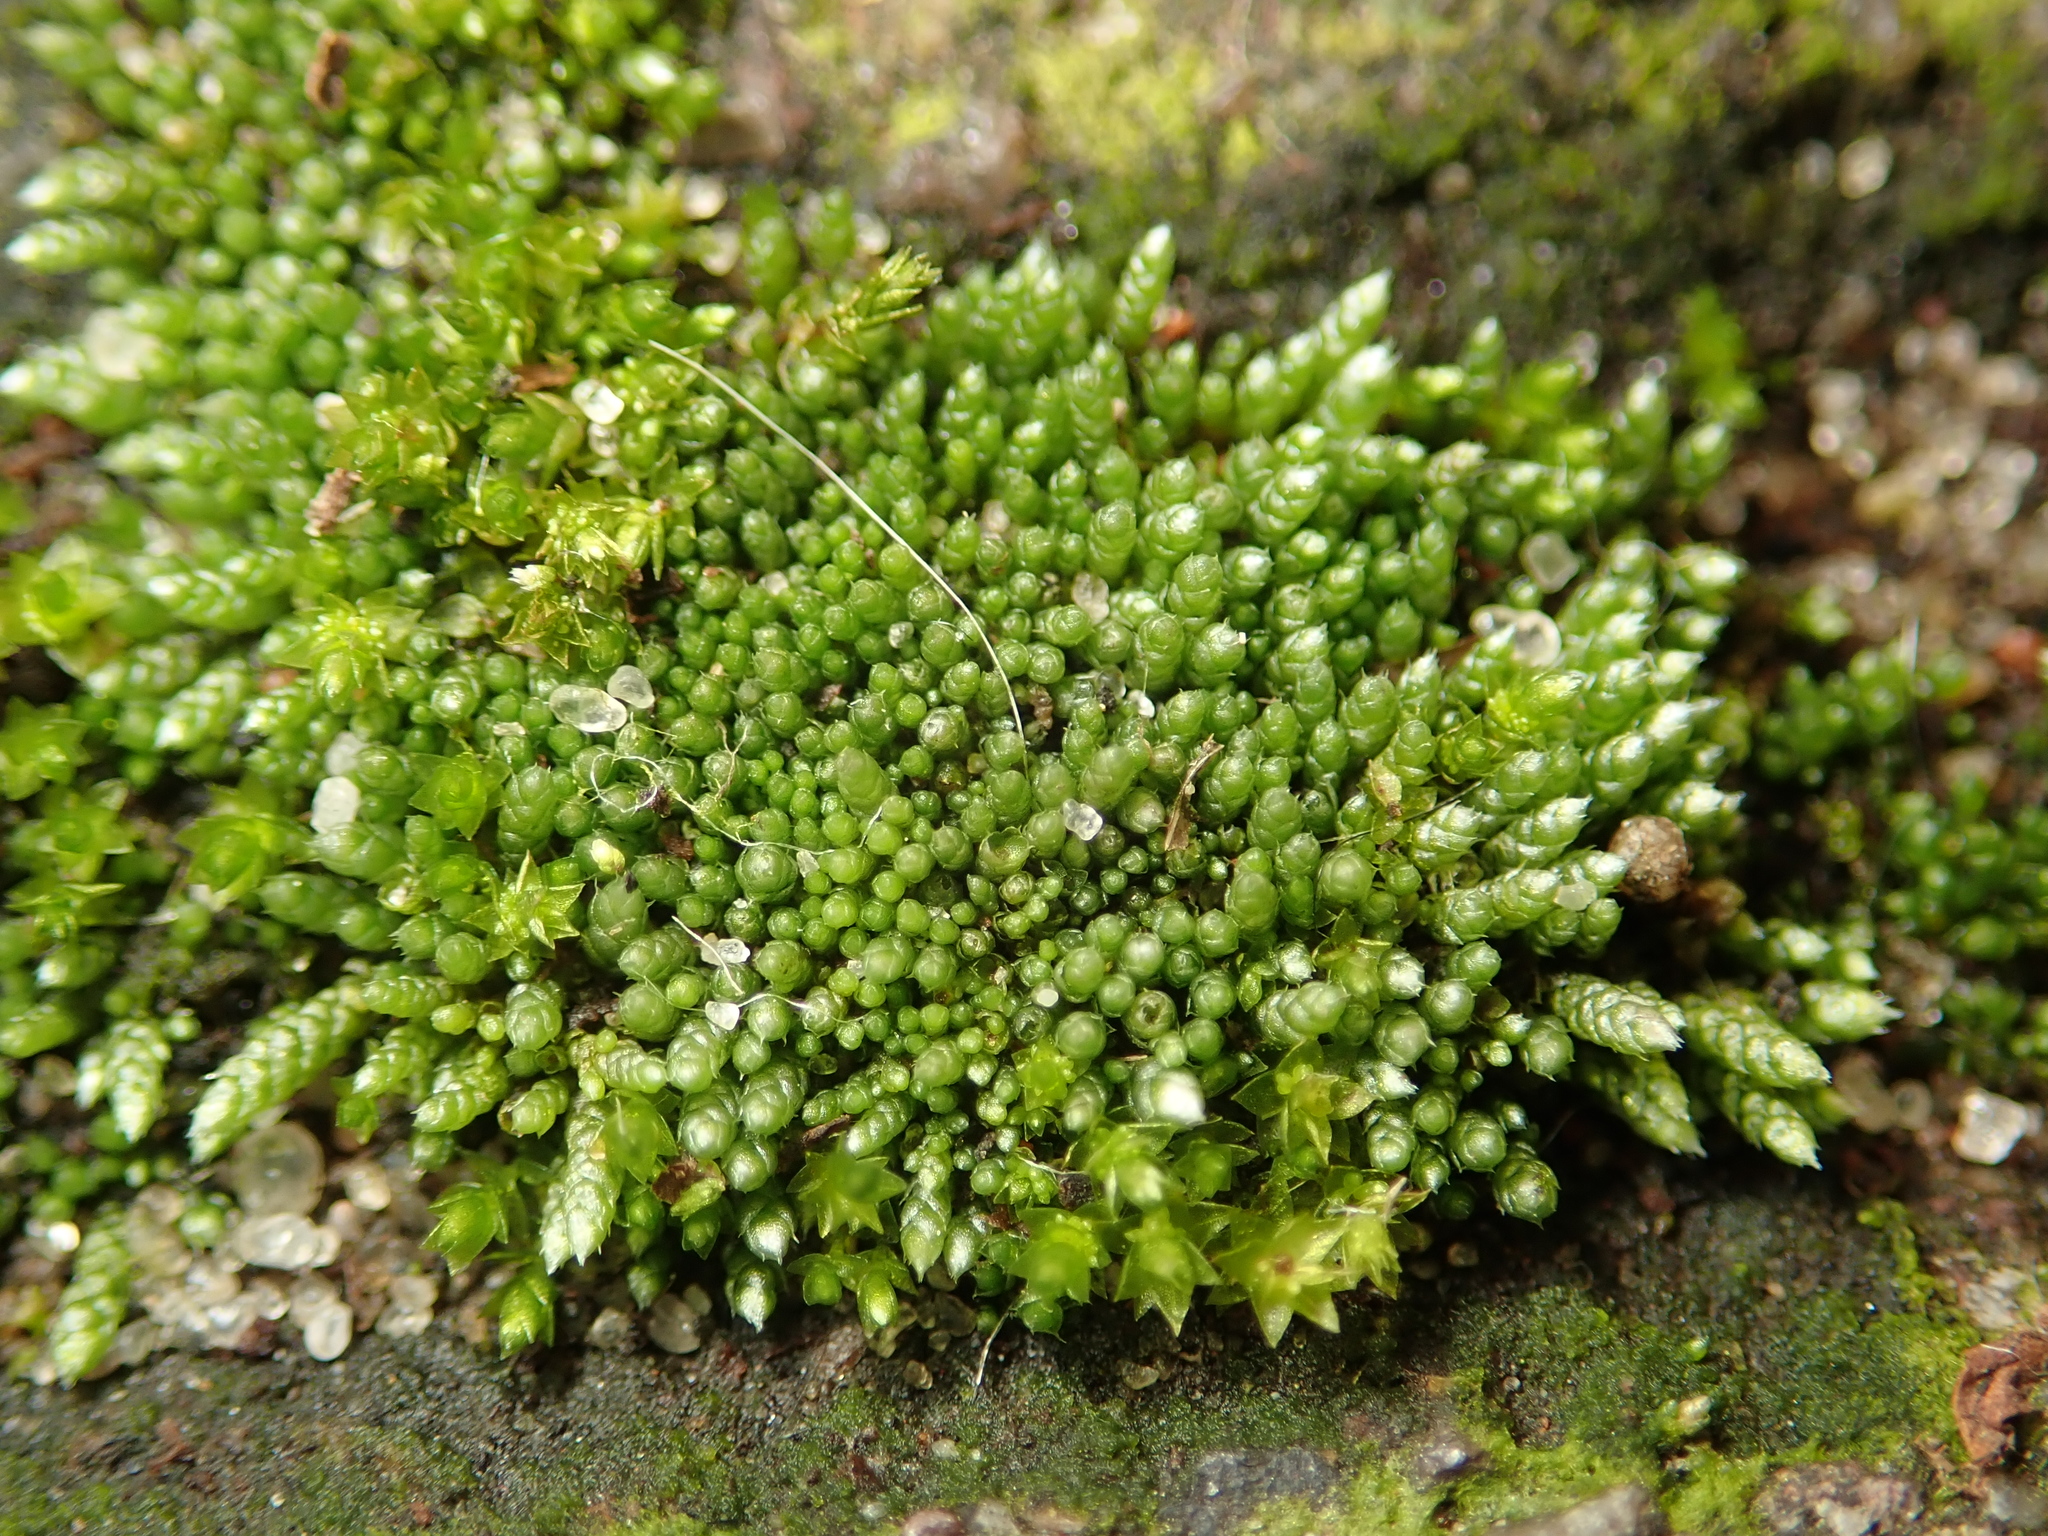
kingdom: Plantae
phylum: Bryophyta
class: Bryopsida
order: Bryales
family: Bryaceae
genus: Bryum
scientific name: Bryum argenteum
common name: Silver-moss
